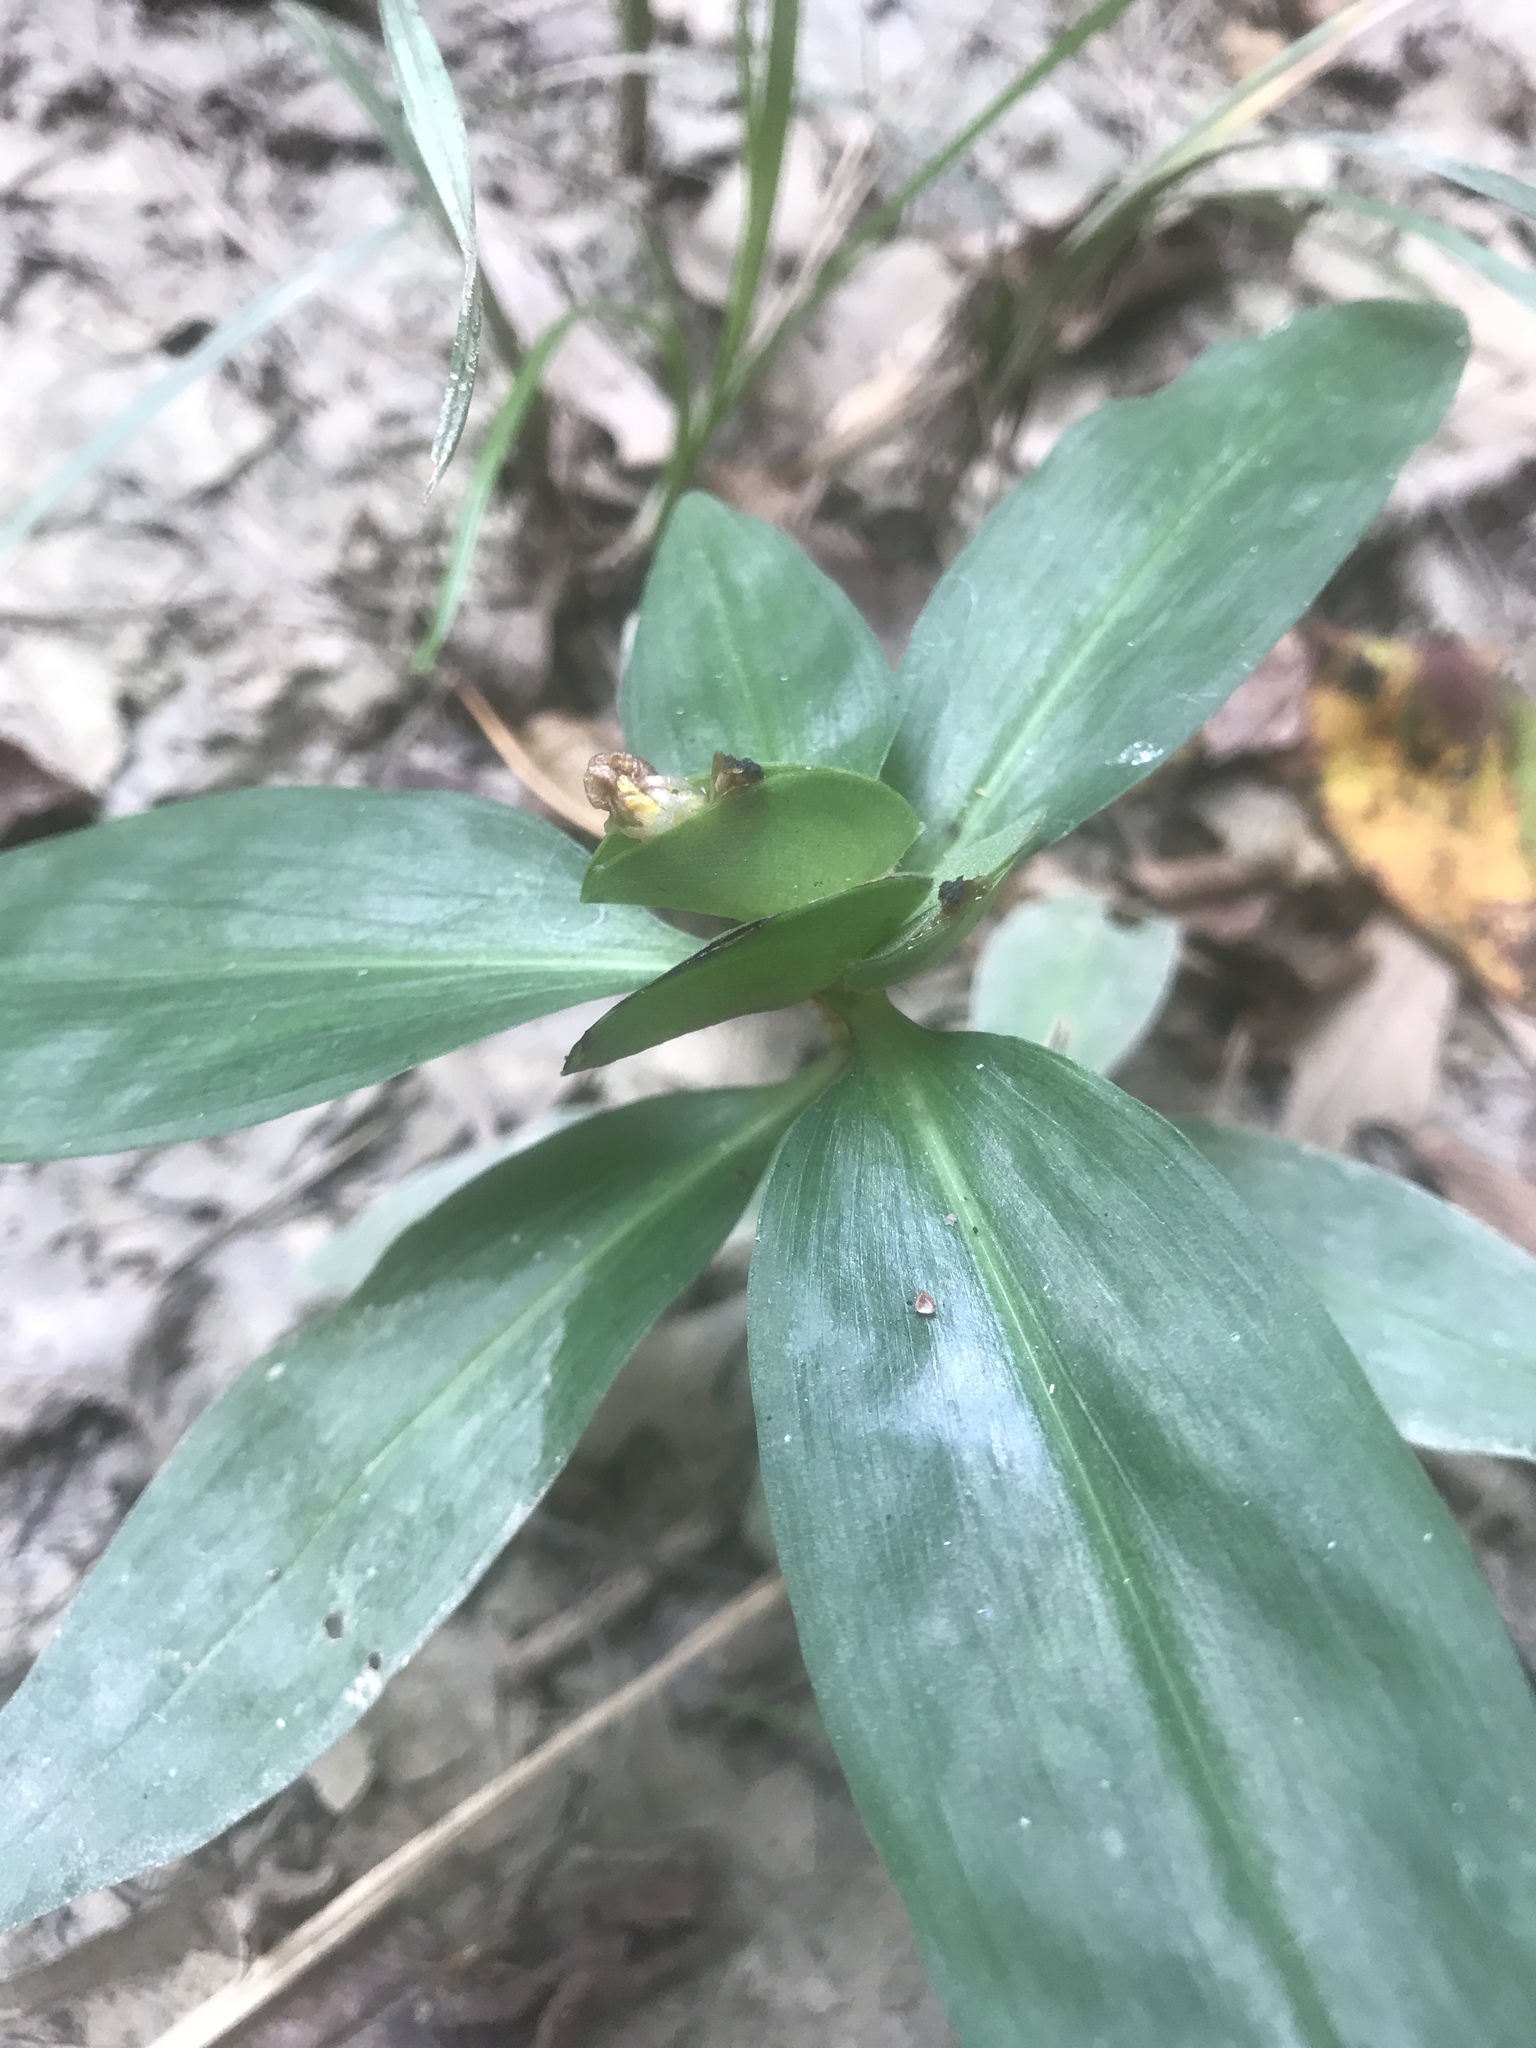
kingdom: Plantae
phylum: Tracheophyta
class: Liliopsida
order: Commelinales
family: Commelinaceae
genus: Commelina
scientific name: Commelina virginica
